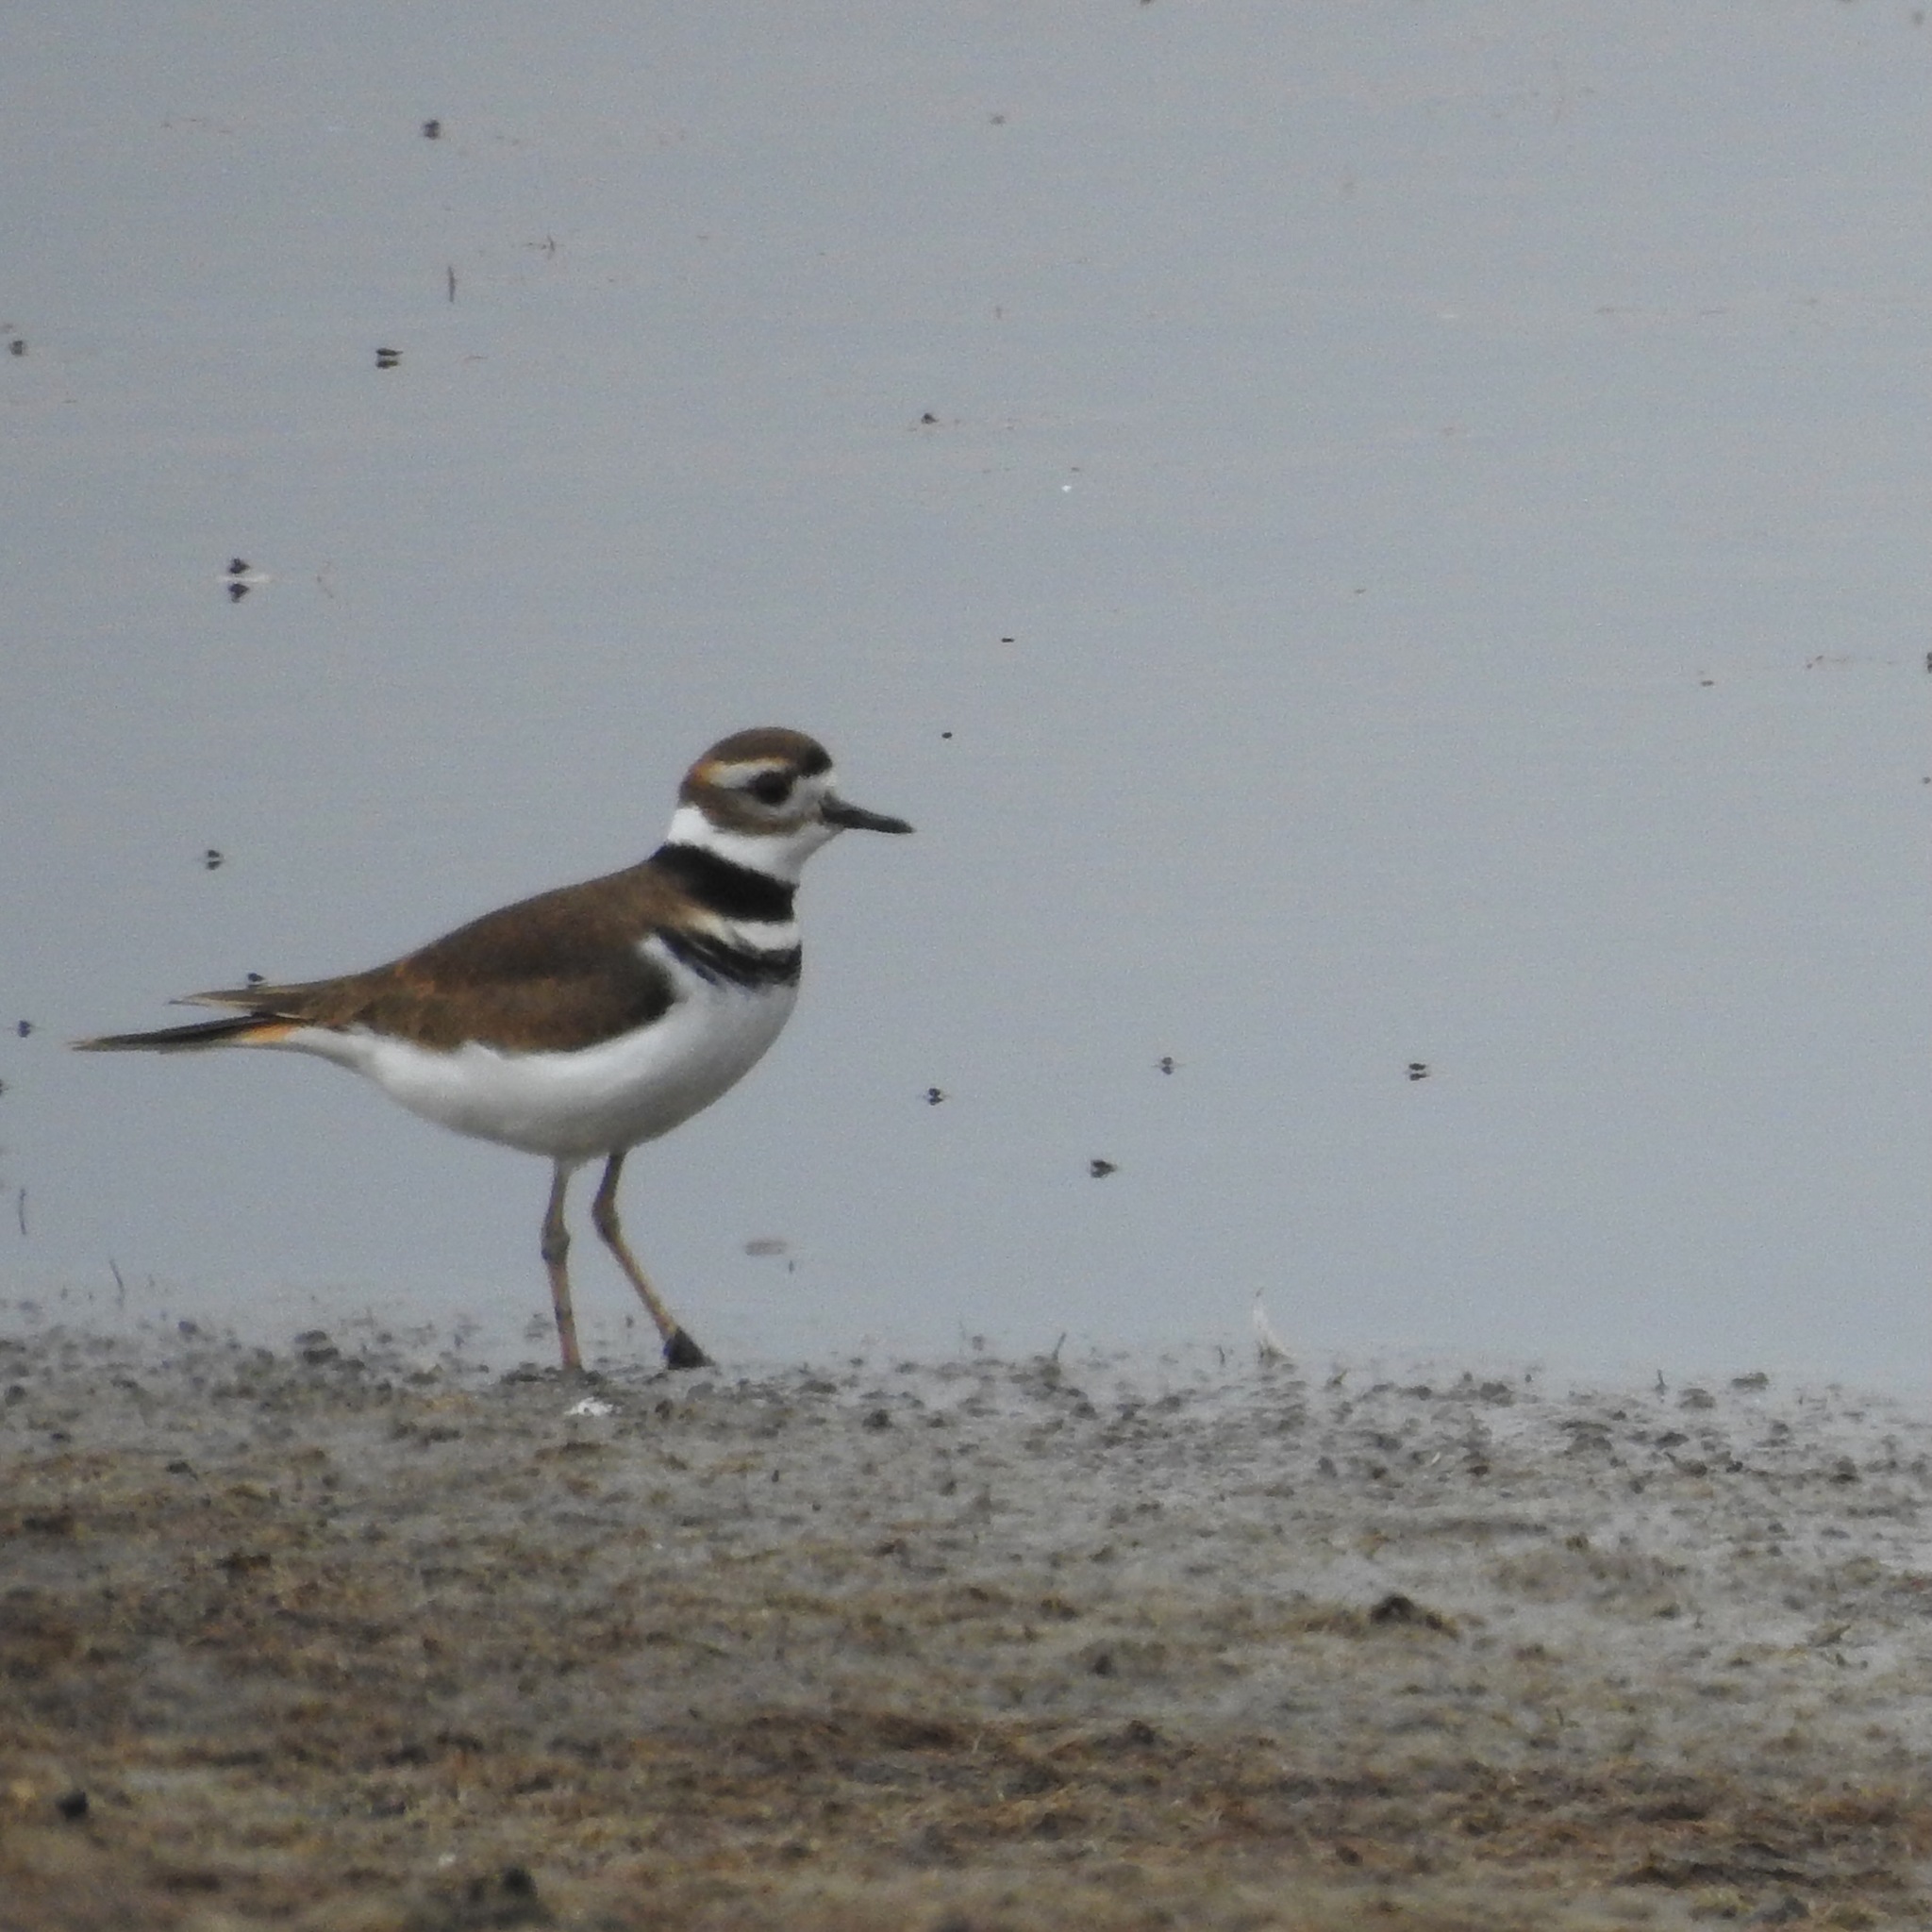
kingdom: Animalia
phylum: Chordata
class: Aves
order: Charadriiformes
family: Charadriidae
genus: Charadrius
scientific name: Charadrius vociferus
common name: Killdeer
